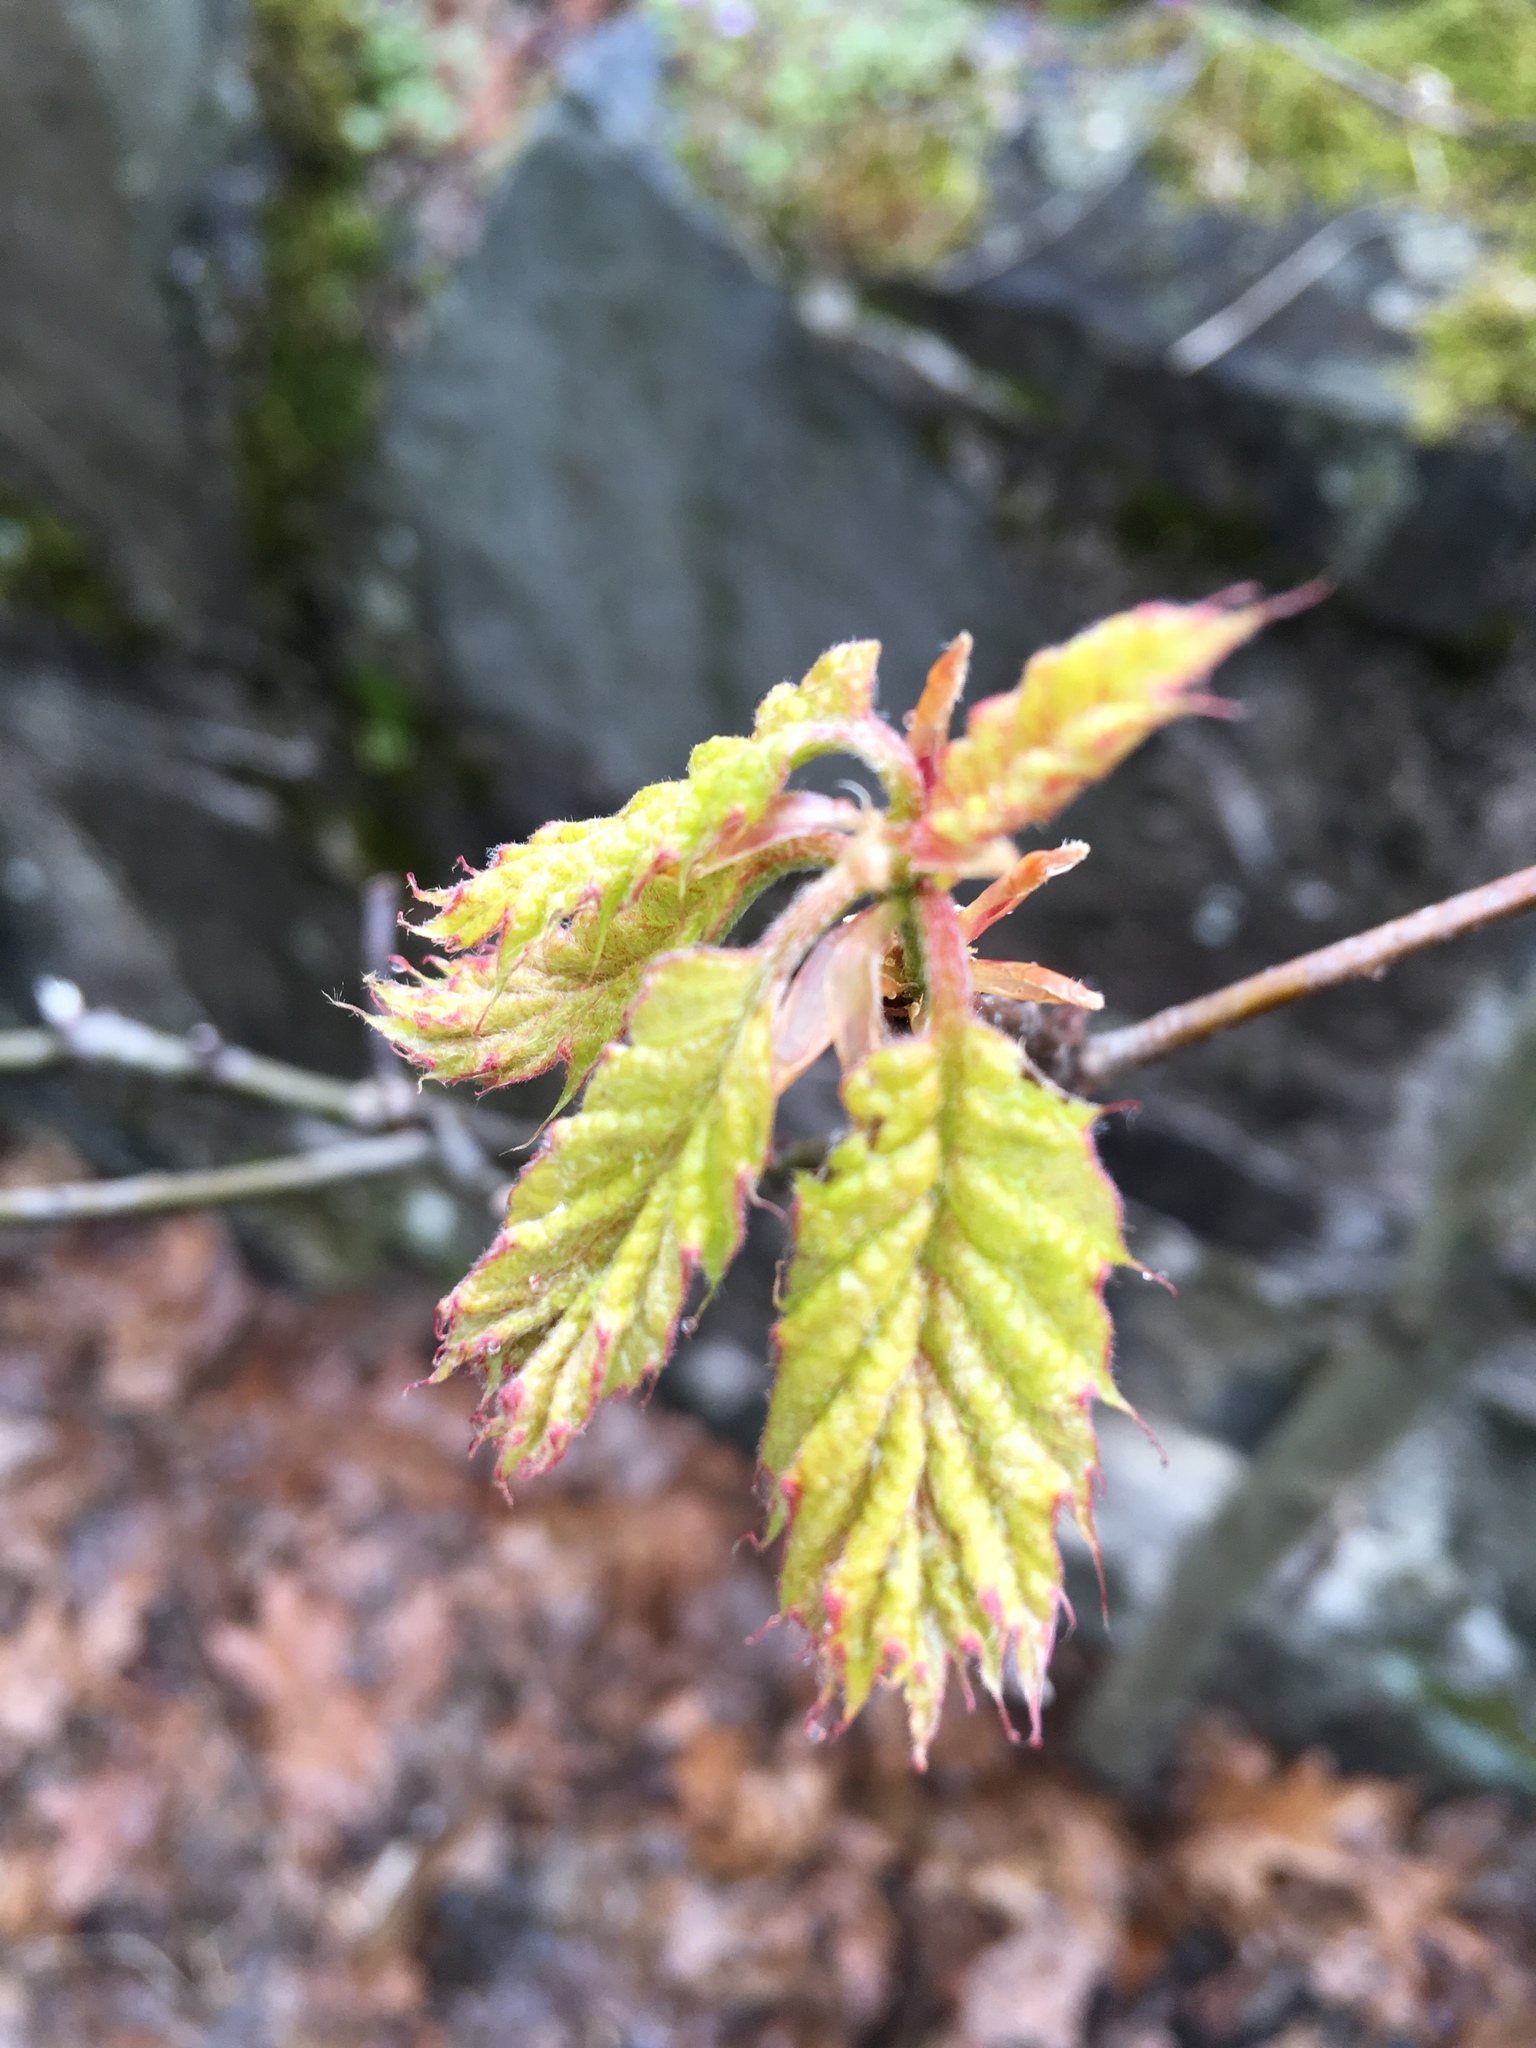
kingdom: Plantae
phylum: Tracheophyta
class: Magnoliopsida
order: Fagales
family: Fagaceae
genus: Quercus
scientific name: Quercus
